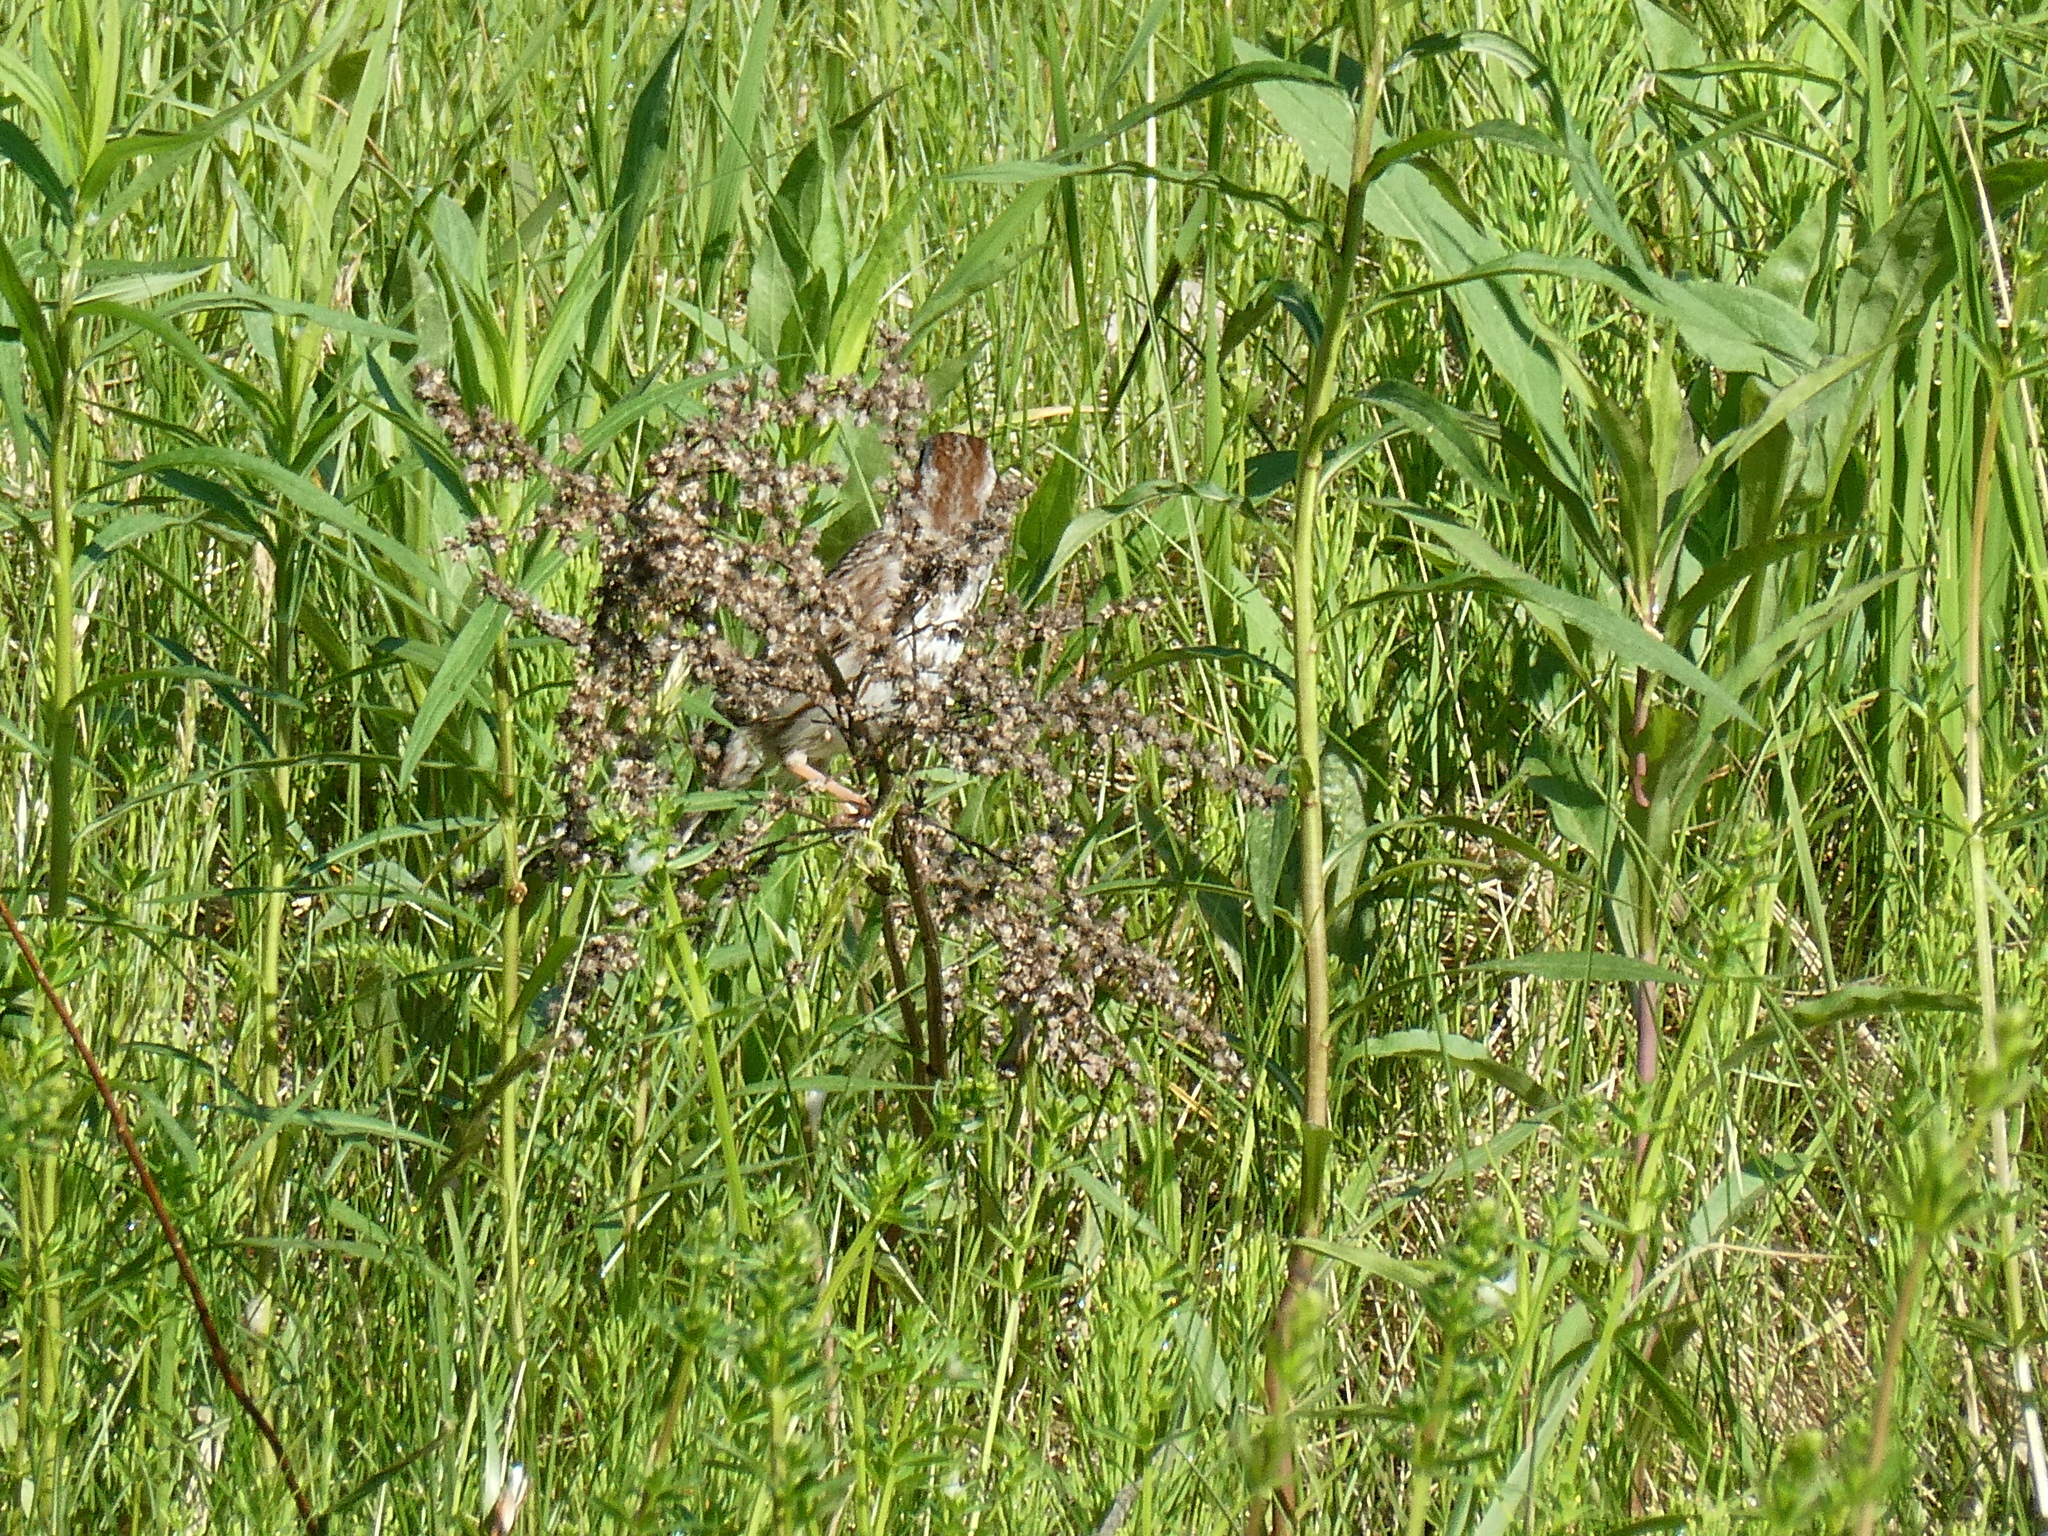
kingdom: Animalia
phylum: Chordata
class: Aves
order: Passeriformes
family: Passerellidae
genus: Melospiza
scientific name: Melospiza melodia
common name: Song sparrow
